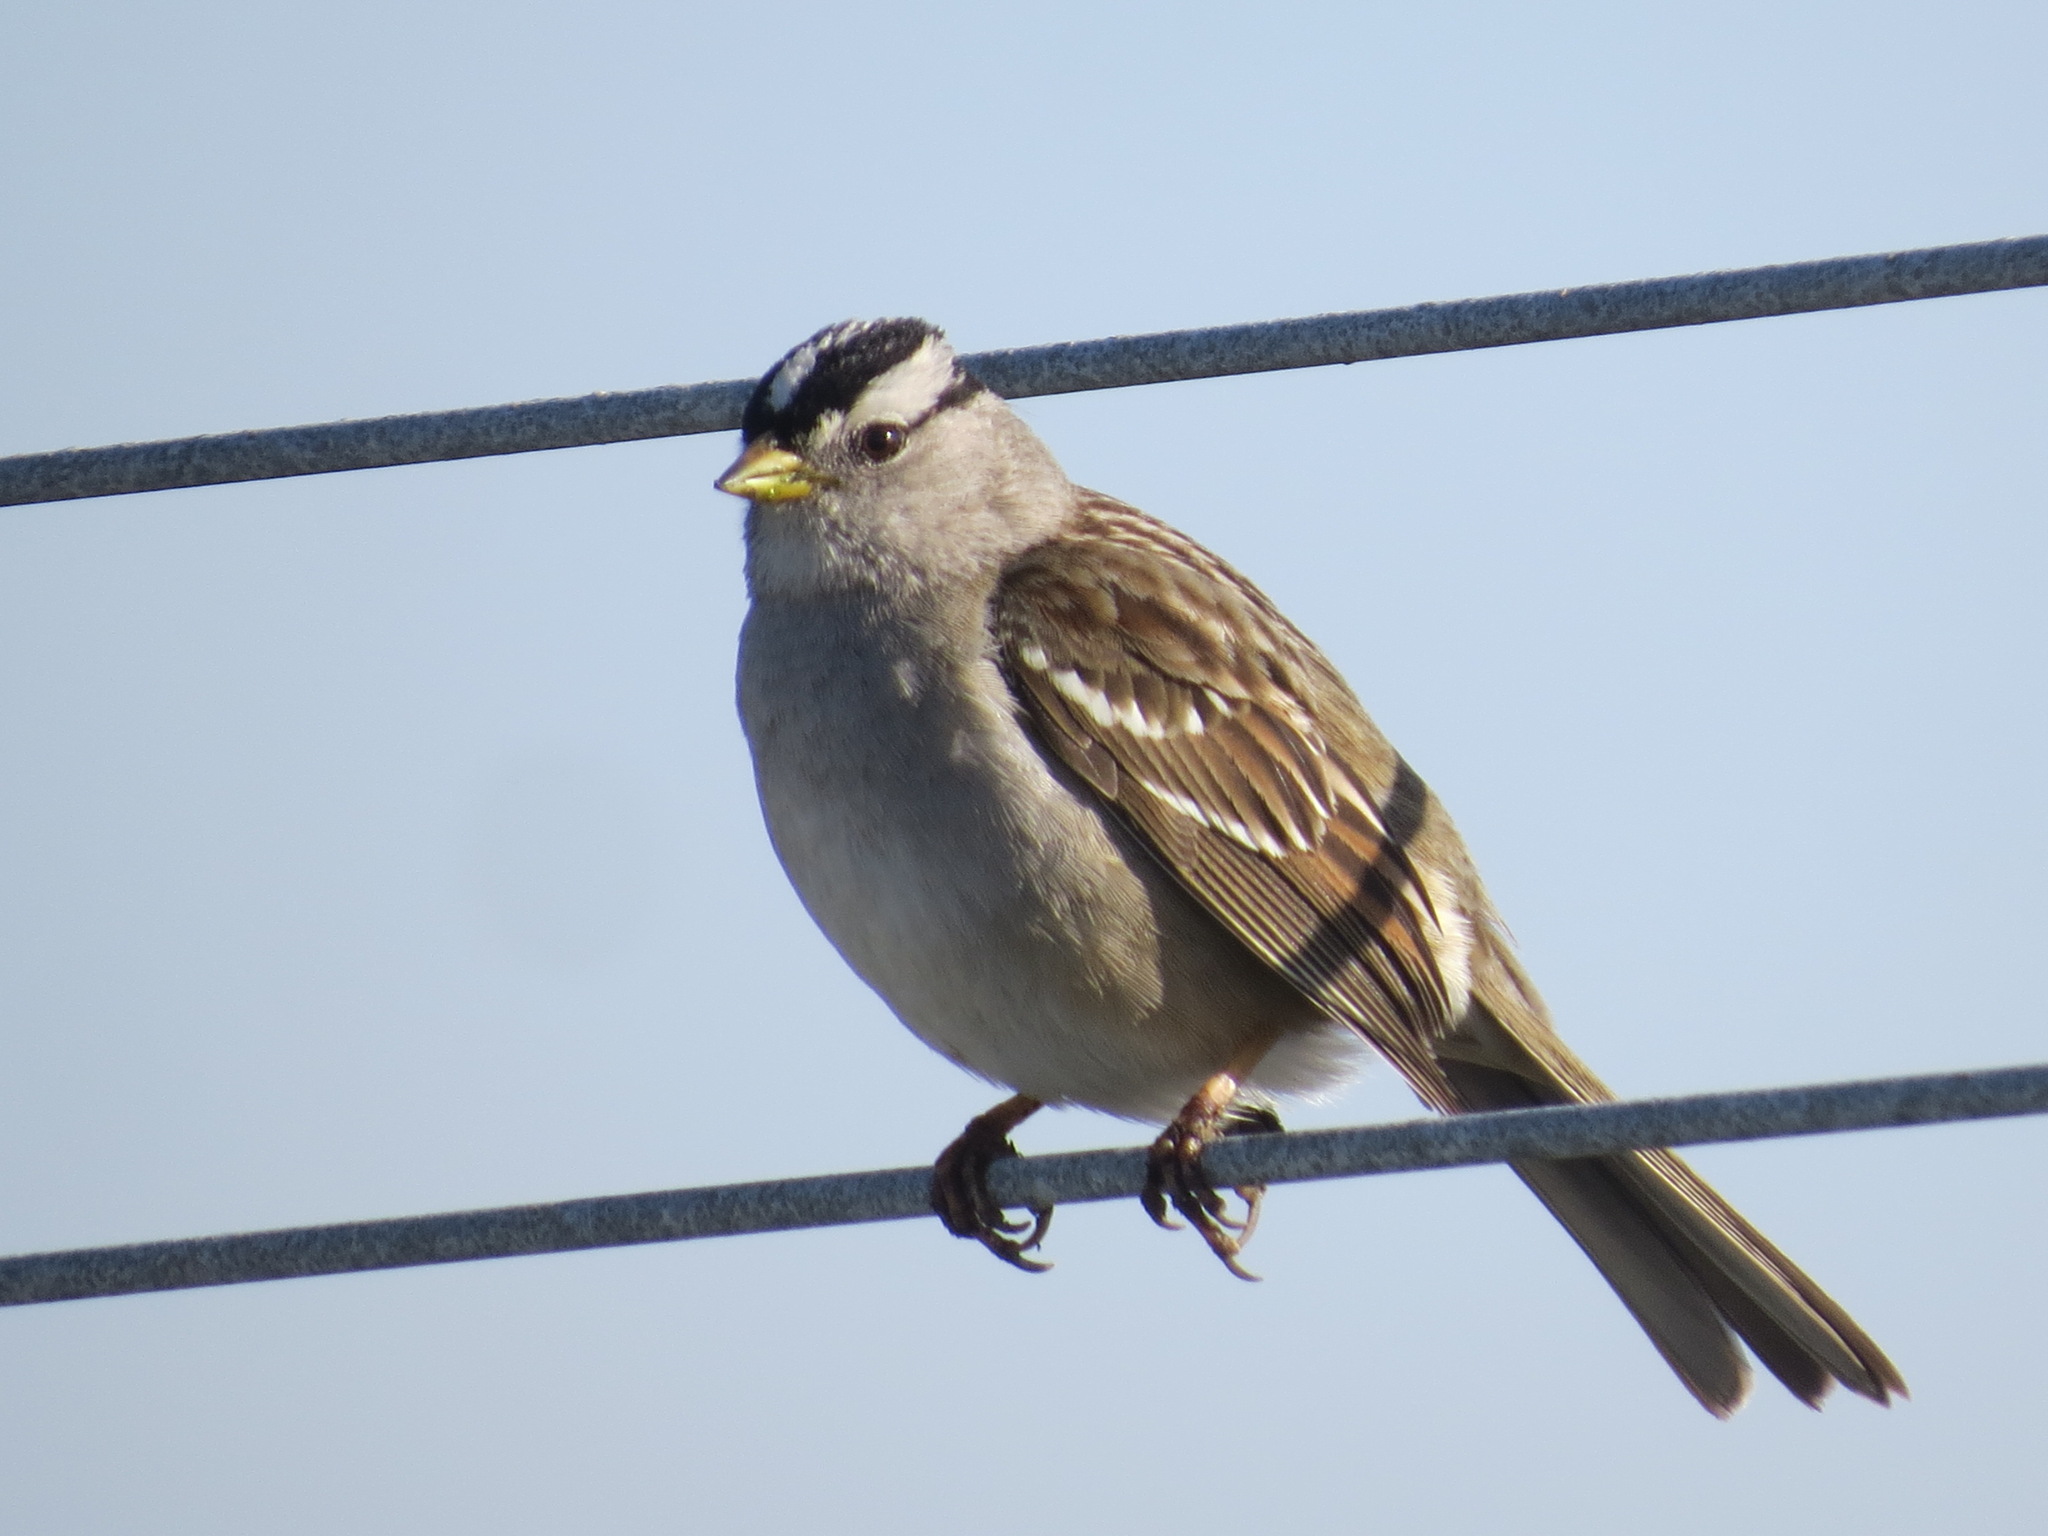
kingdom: Animalia
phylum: Chordata
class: Aves
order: Passeriformes
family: Passerellidae
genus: Zonotrichia
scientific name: Zonotrichia leucophrys
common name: White-crowned sparrow
